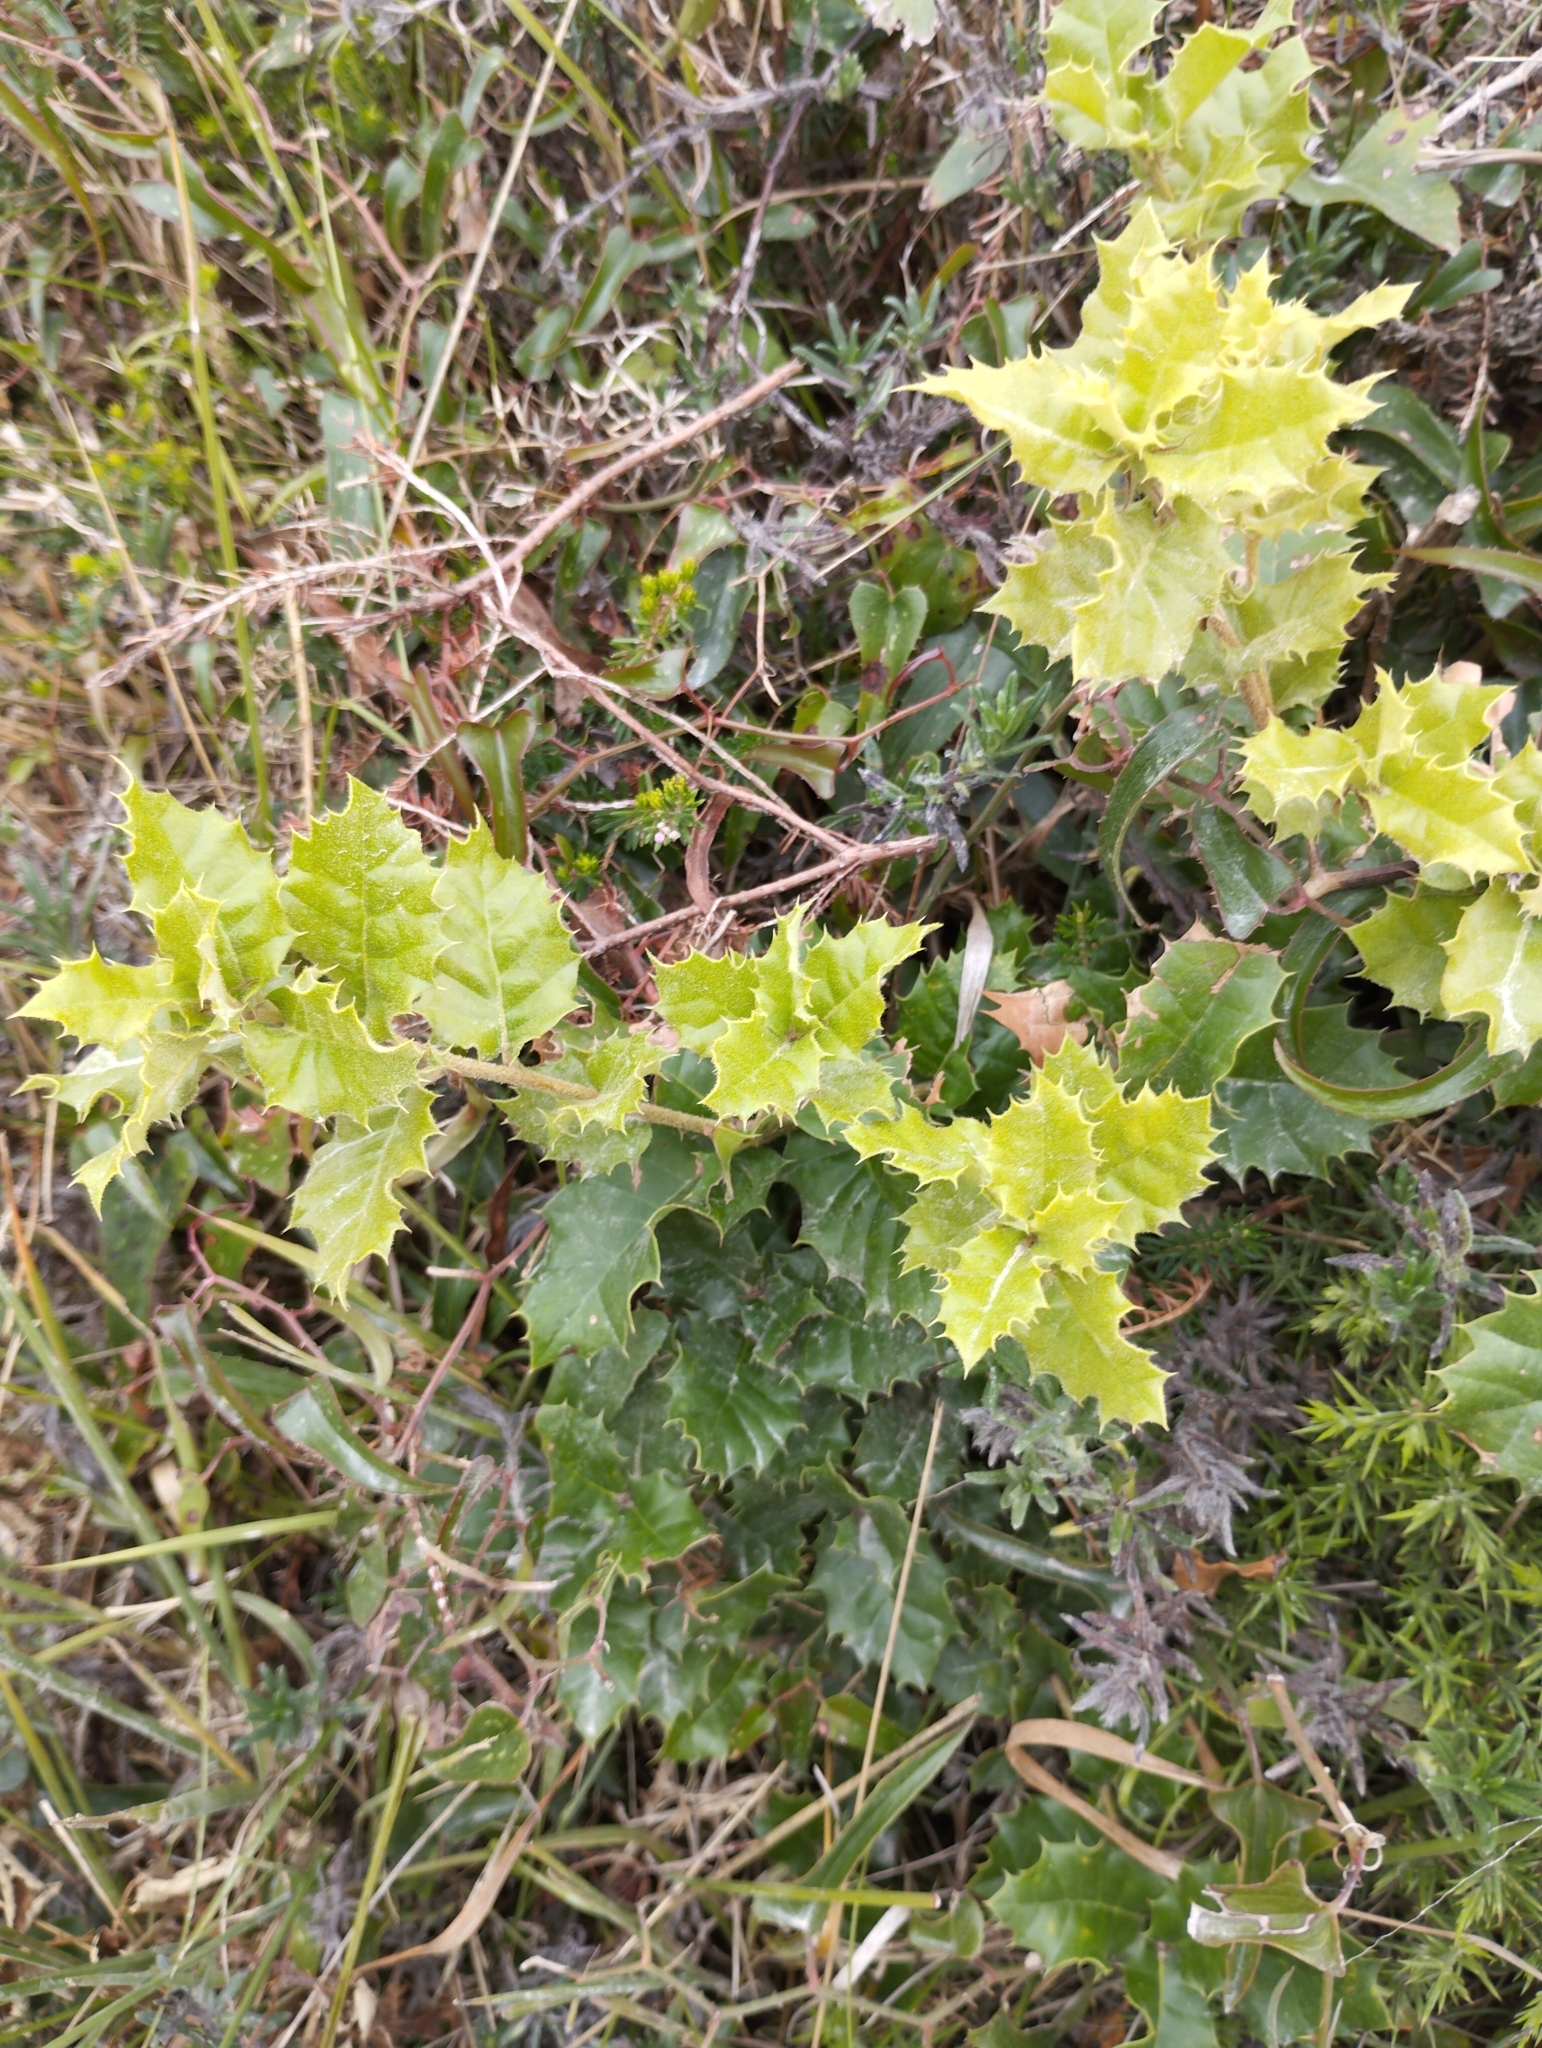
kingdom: Plantae
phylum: Tracheophyta
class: Magnoliopsida
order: Fagales
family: Fagaceae
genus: Quercus
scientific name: Quercus ilex
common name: Evergreen oak
